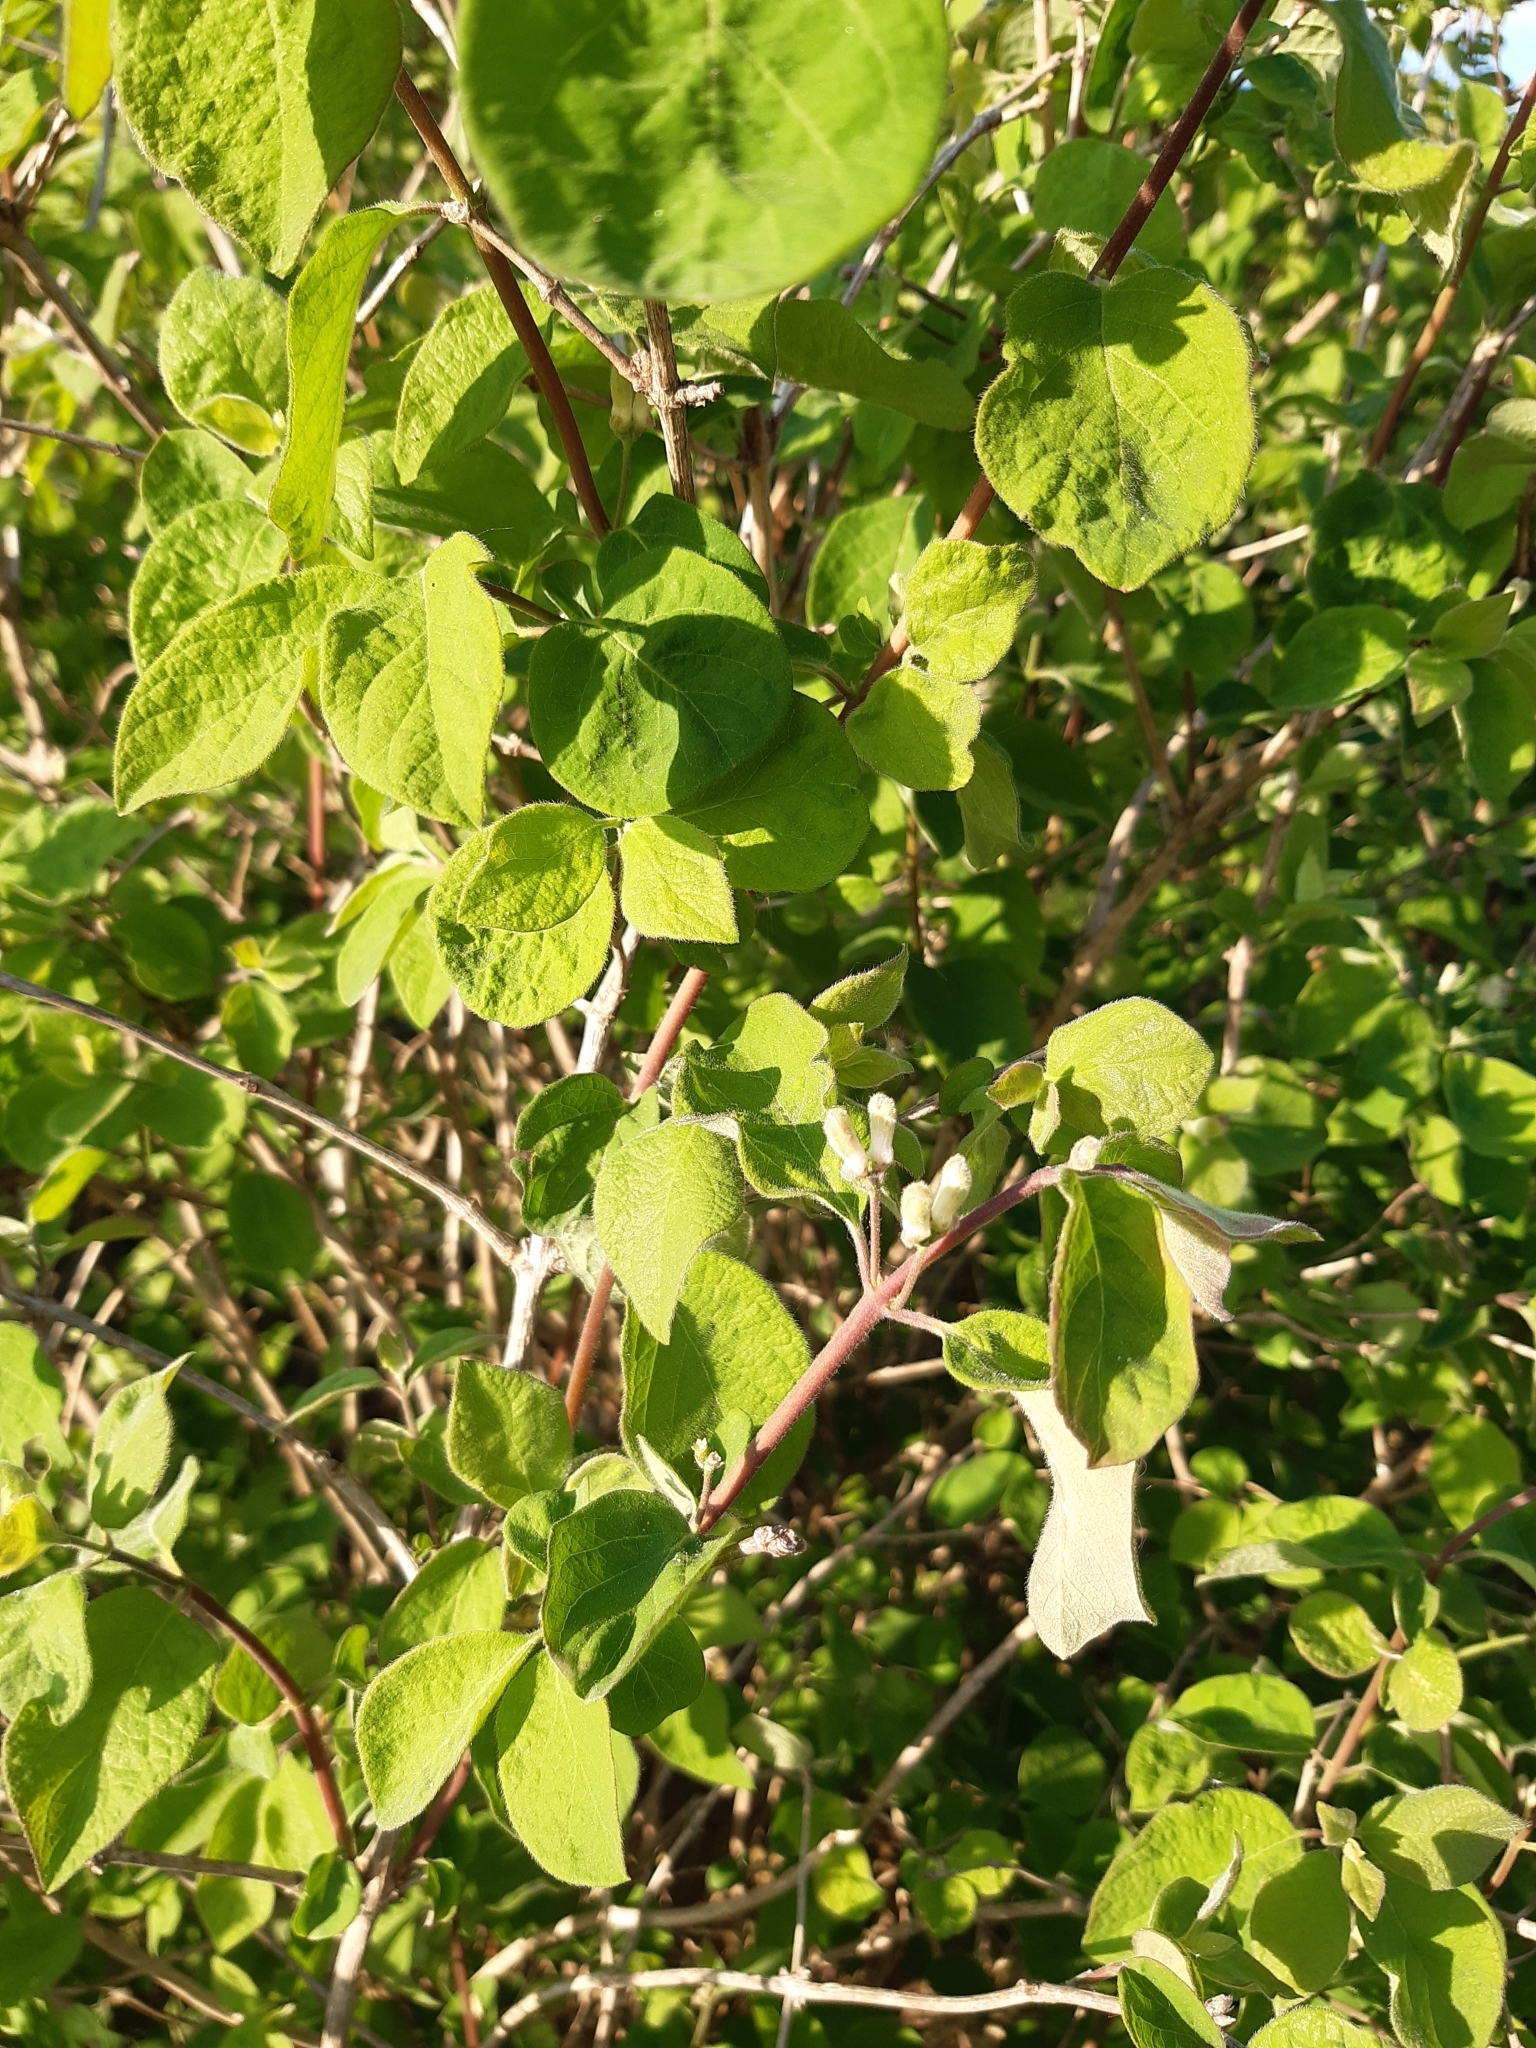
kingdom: Plantae
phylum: Tracheophyta
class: Magnoliopsida
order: Dipsacales
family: Caprifoliaceae
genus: Lonicera
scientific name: Lonicera xylosteum
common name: Fly honeysuckle
